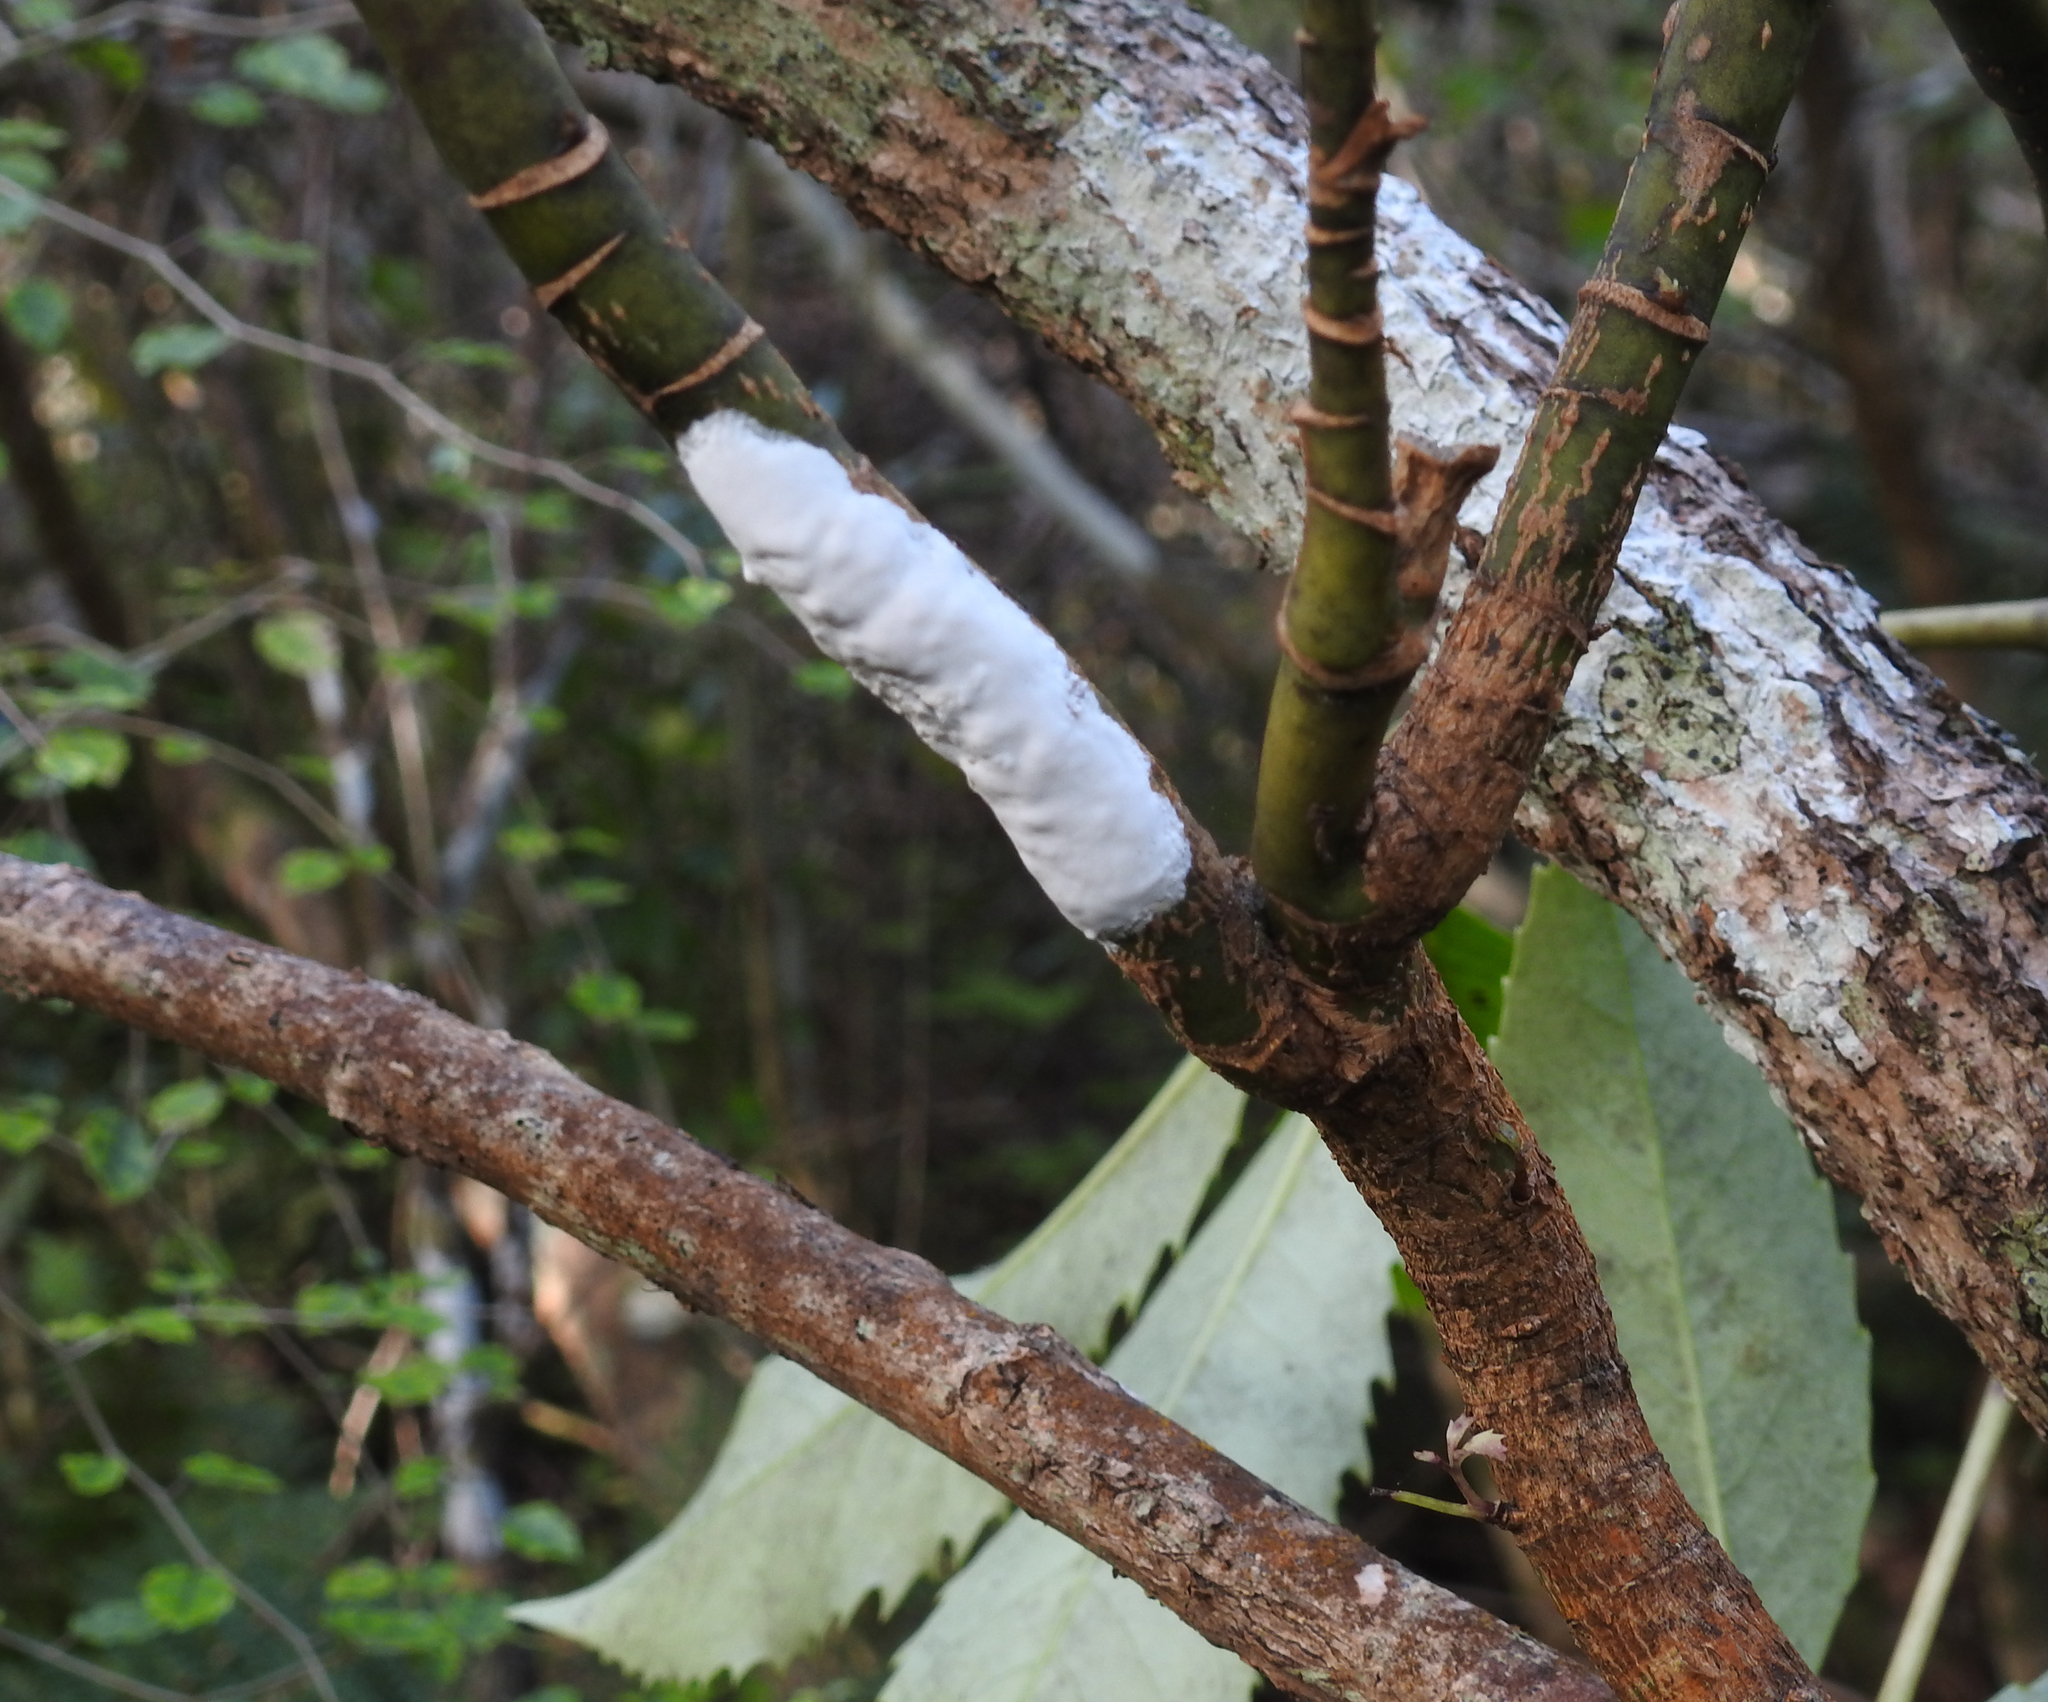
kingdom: Fungi
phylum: Basidiomycota
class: Pucciniomycetes
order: Septobasidiales
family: Septobasidiaceae
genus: Septobasidium
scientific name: Septobasidium simmondsii
